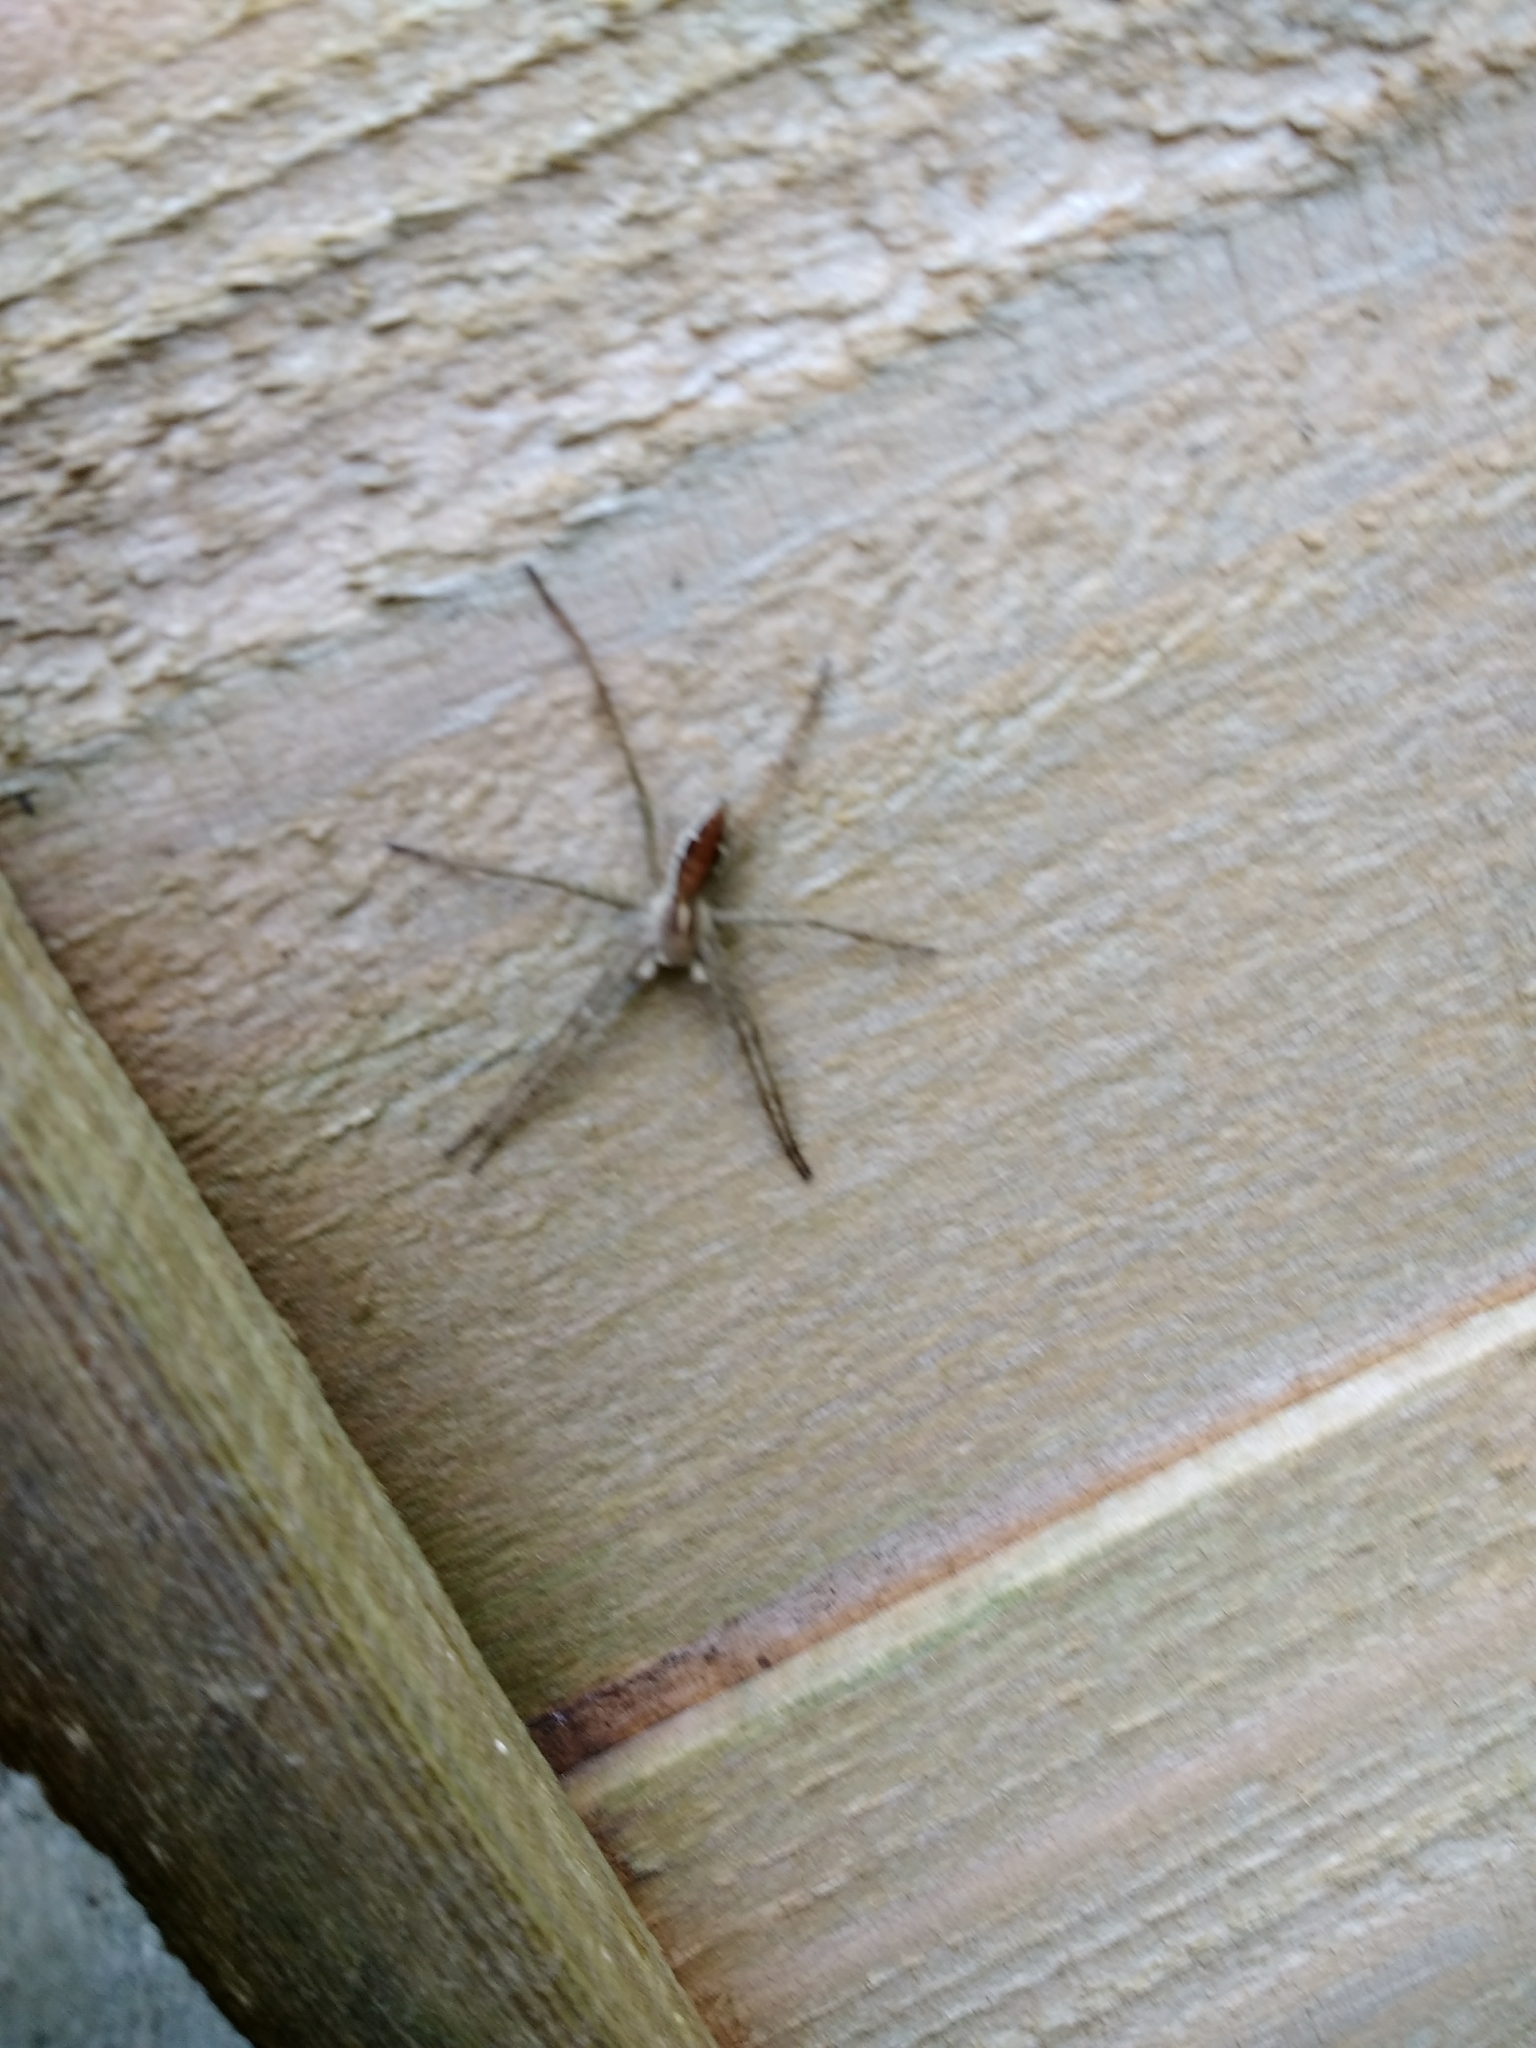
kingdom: Animalia
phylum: Arthropoda
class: Arachnida
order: Araneae
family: Pisauridae
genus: Pisaura
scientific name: Pisaura mirabilis
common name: Tent spider
